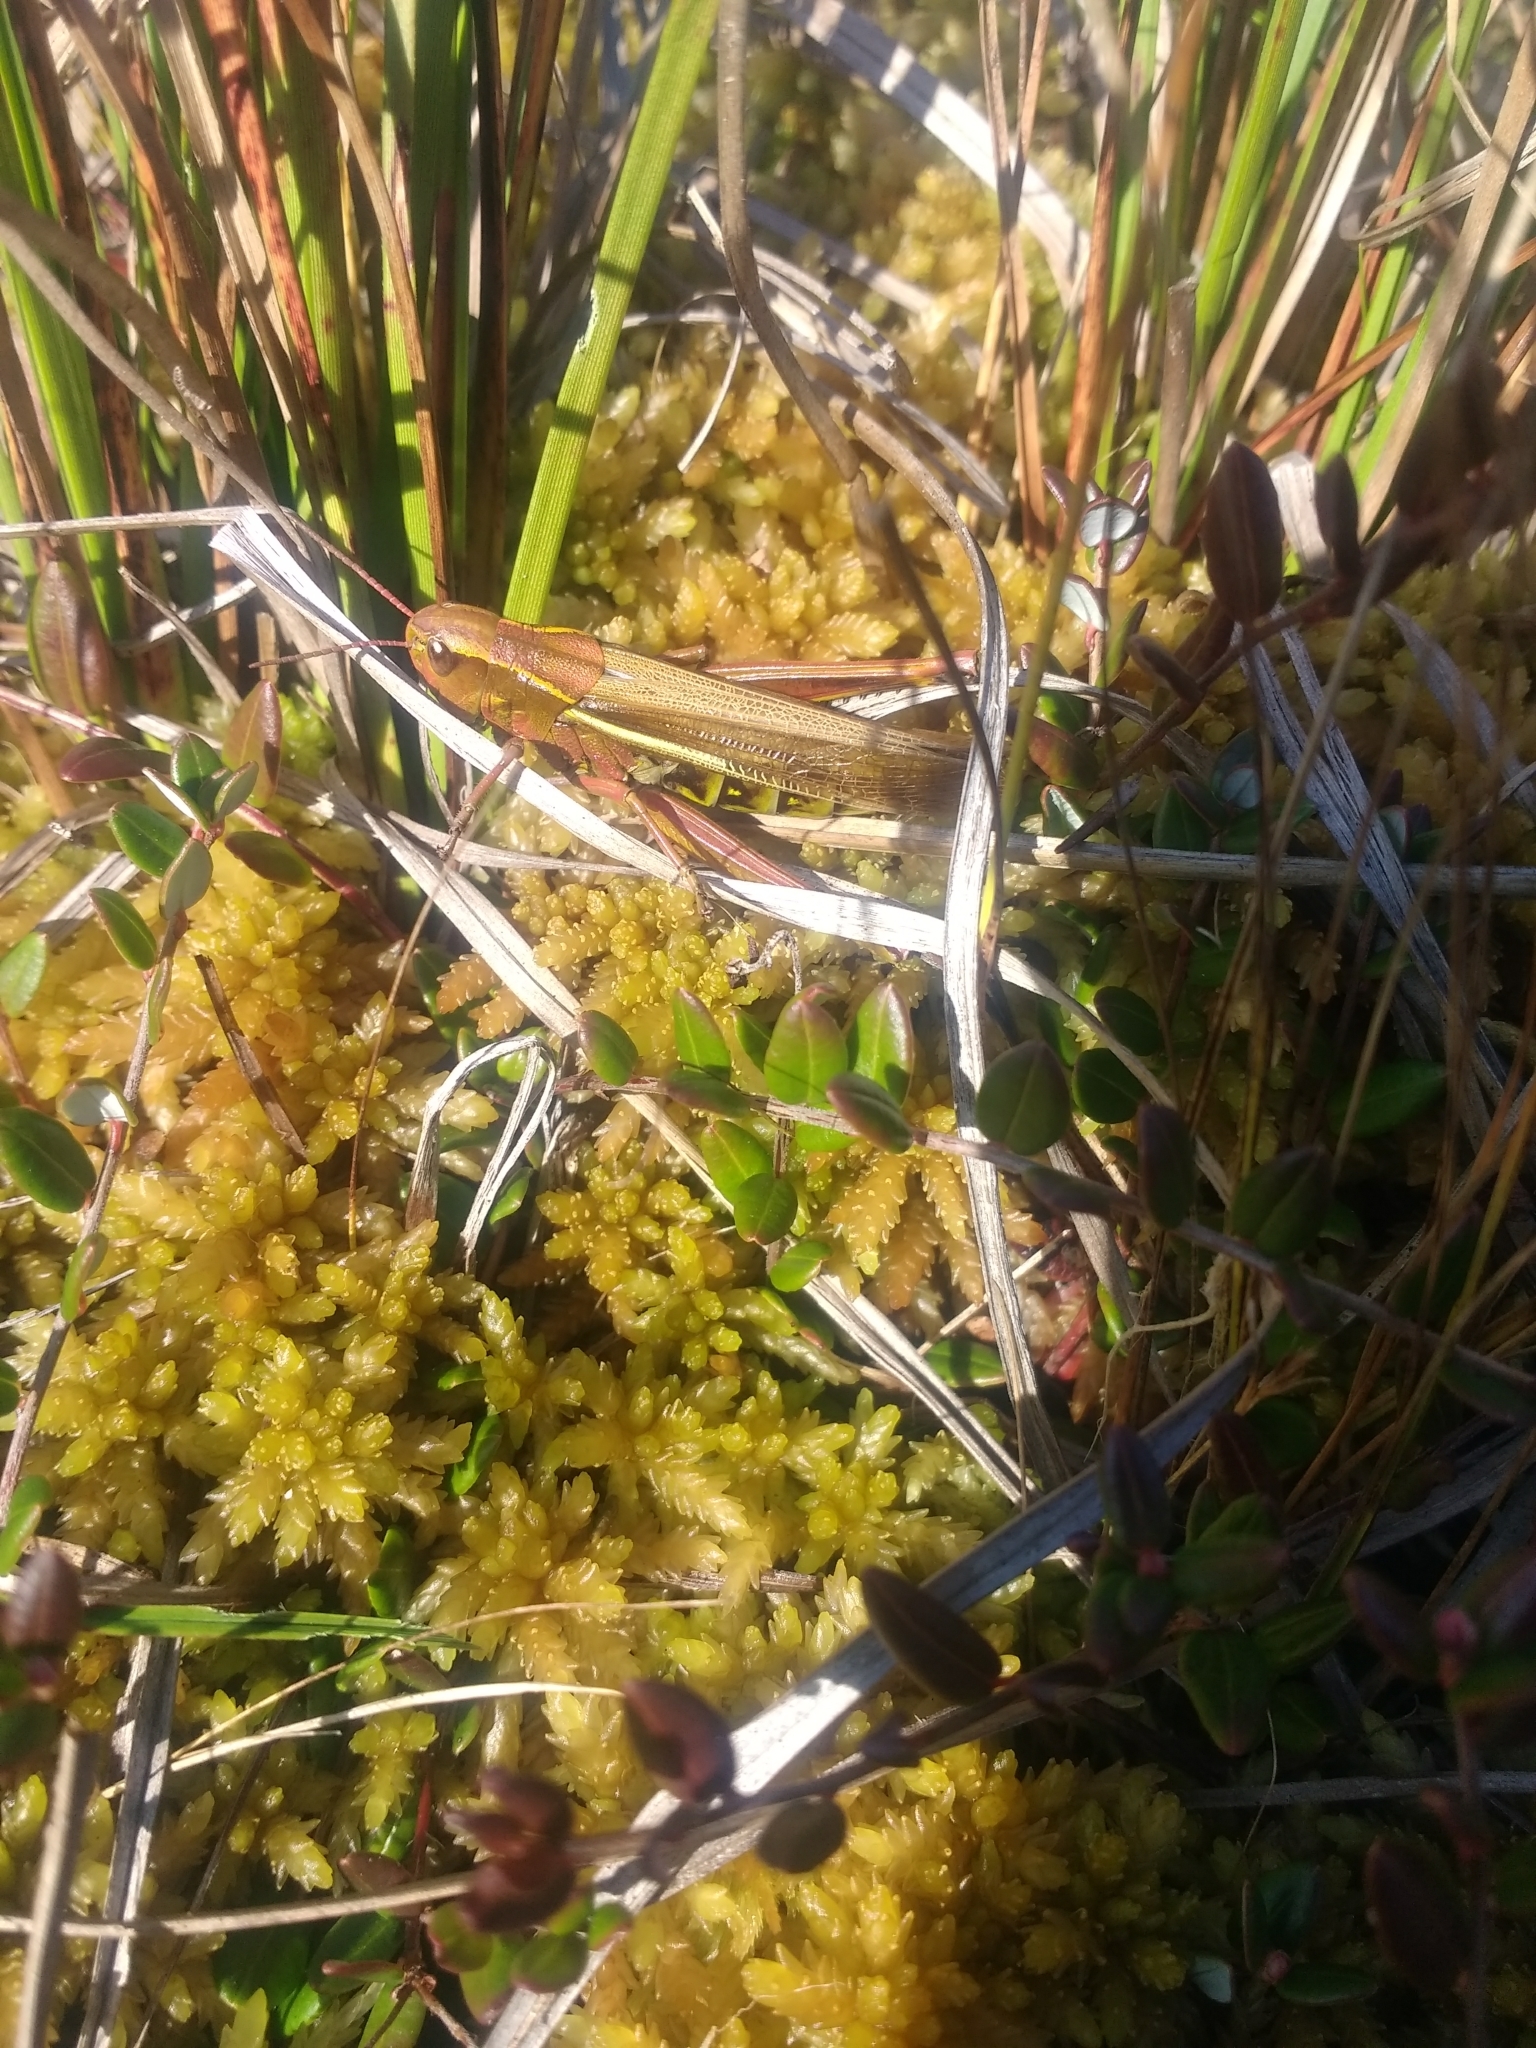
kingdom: Animalia
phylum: Arthropoda
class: Insecta
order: Orthoptera
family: Acrididae
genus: Stethophyma
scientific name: Stethophyma lineatum
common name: Striped sedge locust
